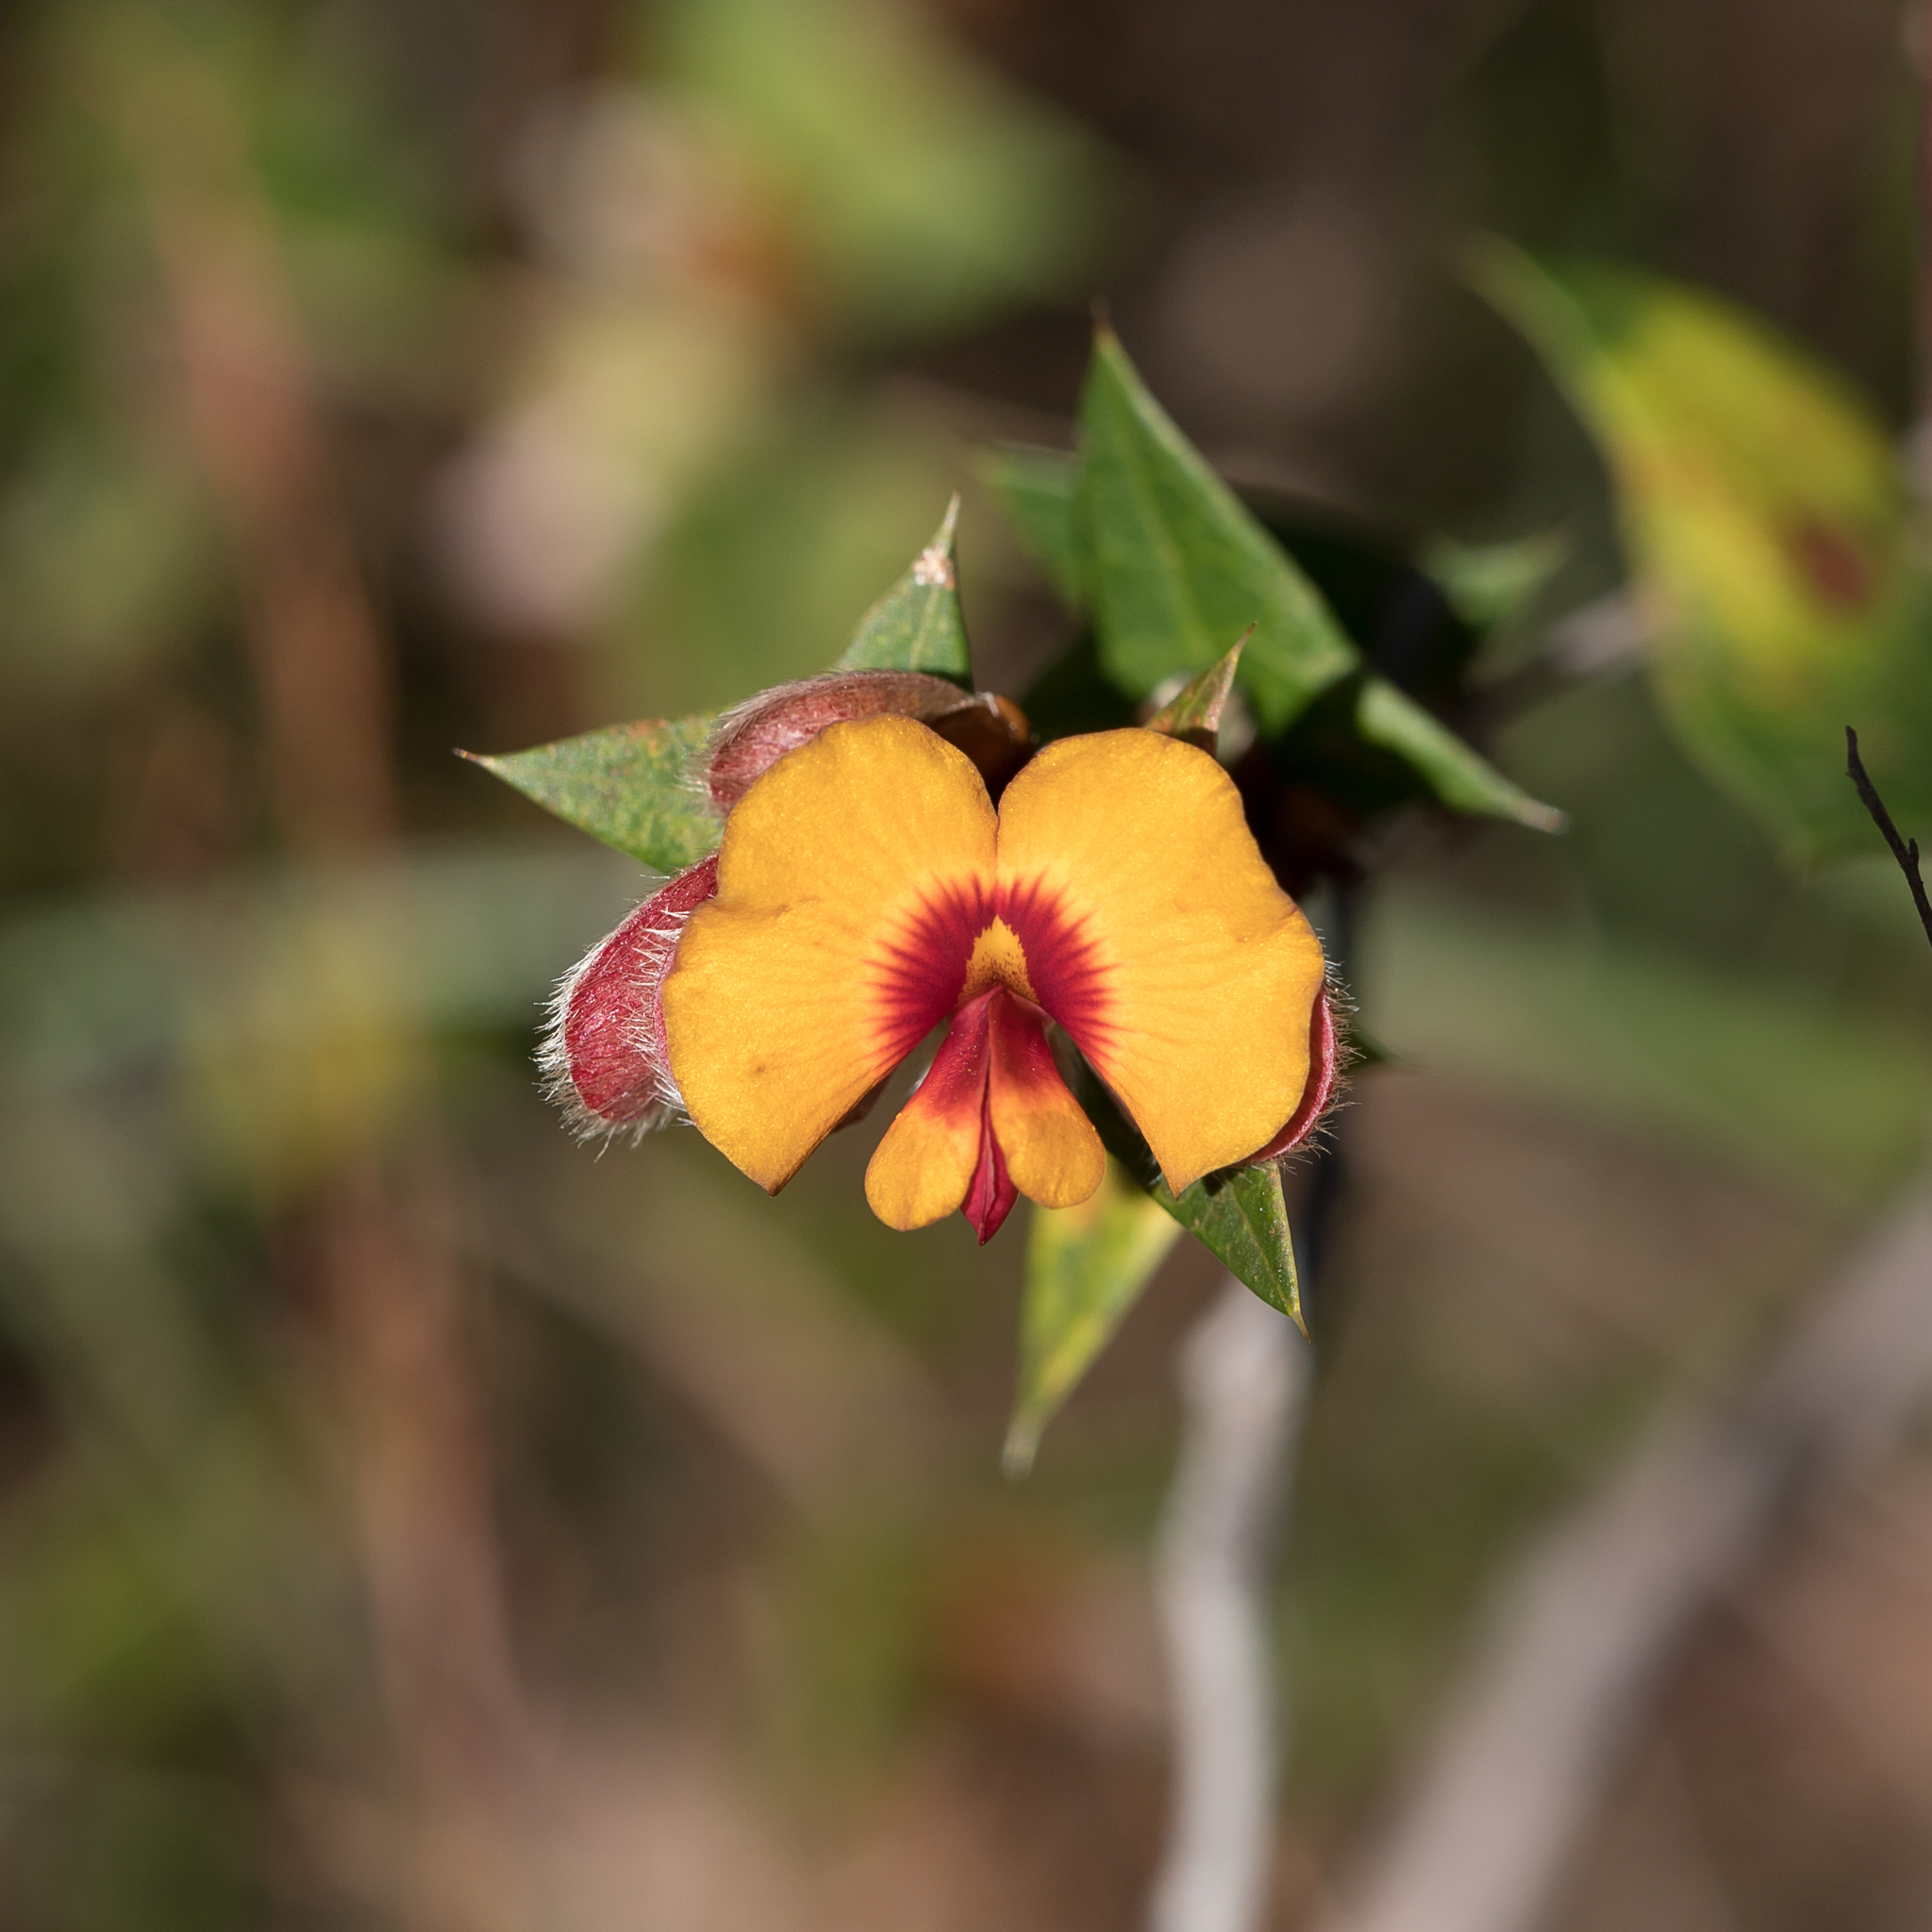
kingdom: Plantae
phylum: Tracheophyta
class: Magnoliopsida
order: Fabales
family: Fabaceae
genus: Platylobium
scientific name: Platylobium obtusangulum
